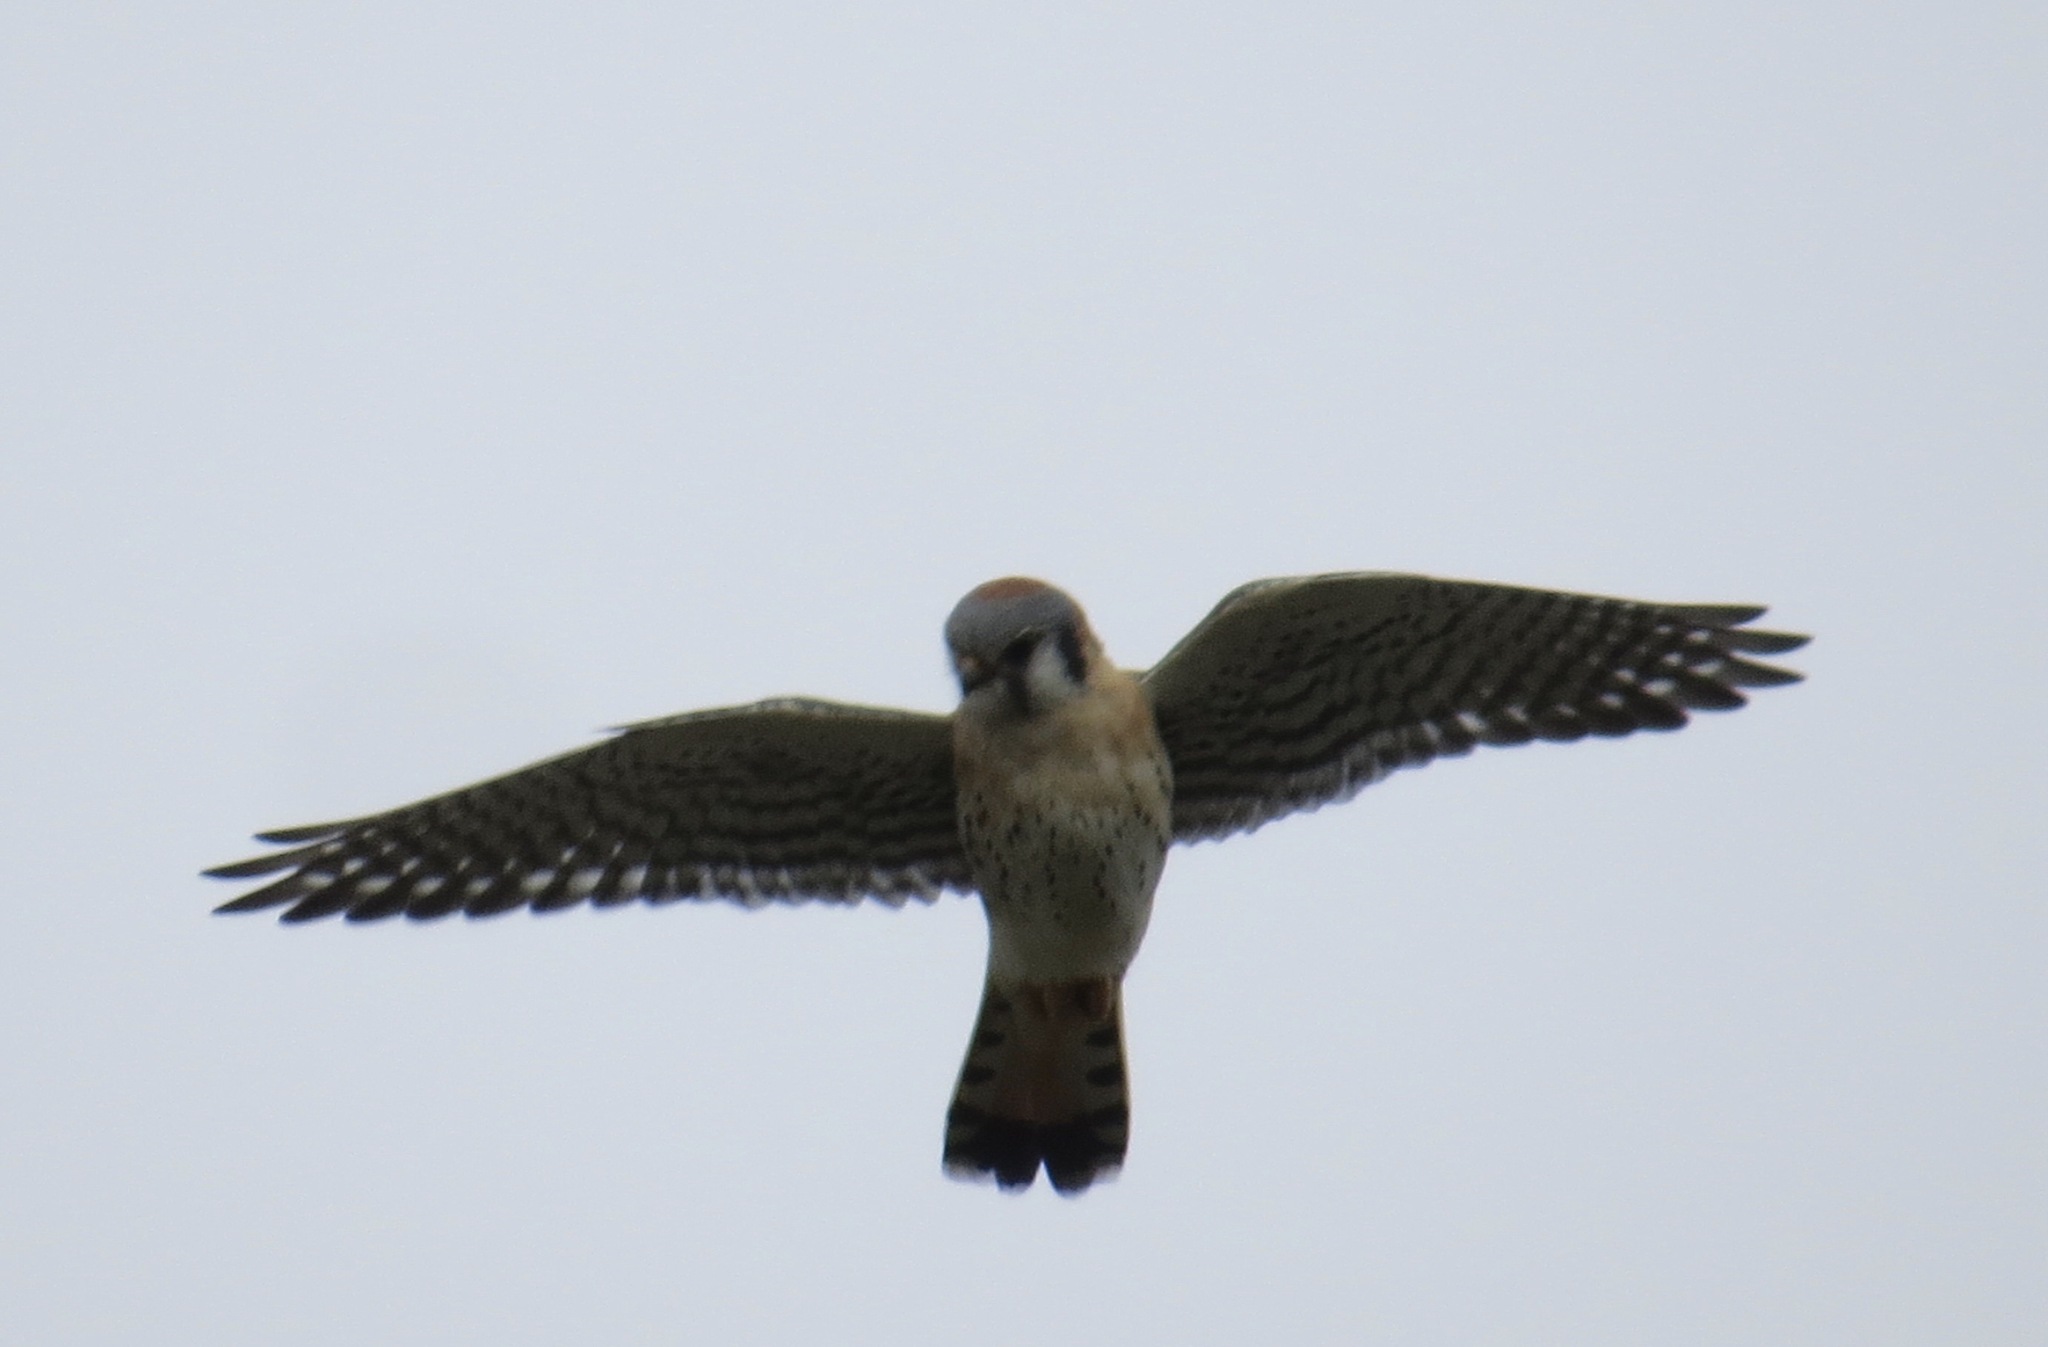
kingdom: Animalia
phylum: Chordata
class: Aves
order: Falconiformes
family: Falconidae
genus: Falco
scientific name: Falco sparverius
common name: American kestrel
